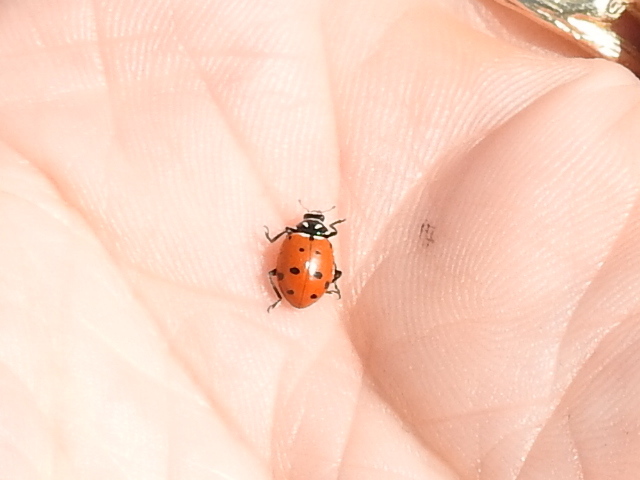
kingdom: Animalia
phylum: Arthropoda
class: Insecta
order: Coleoptera
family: Coccinellidae
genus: Hippodamia
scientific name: Hippodamia convergens
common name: Convergent lady beetle
